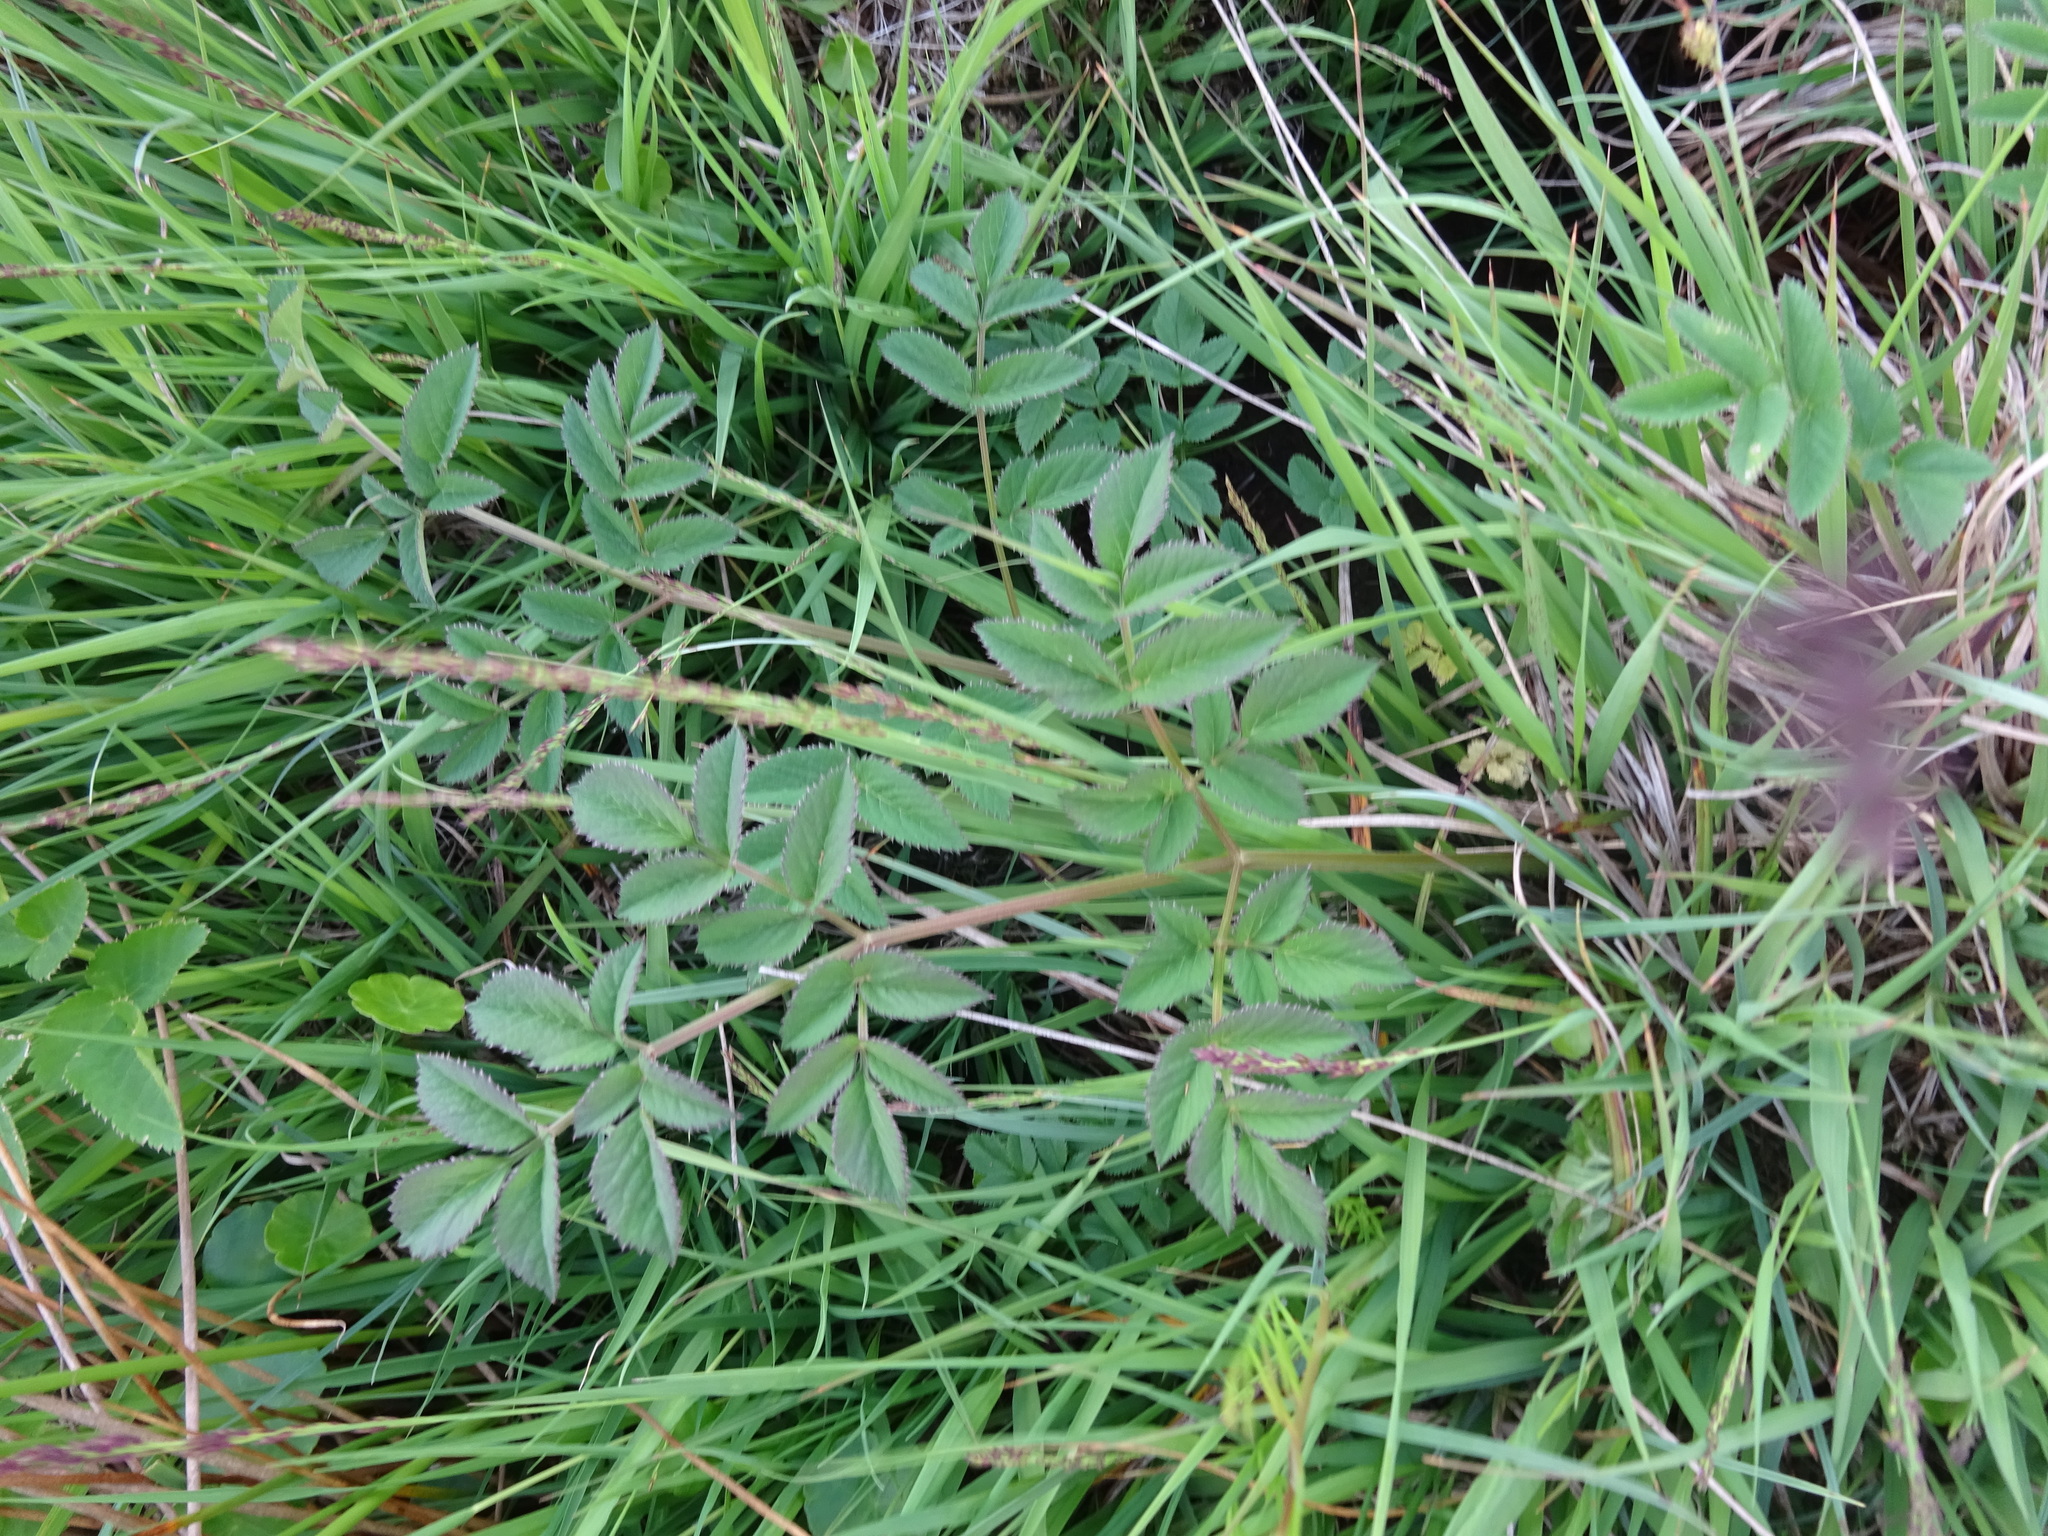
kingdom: Plantae
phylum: Tracheophyta
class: Magnoliopsida
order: Apiales
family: Apiaceae
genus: Angelica
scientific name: Angelica sylvestris
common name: Wild angelica
